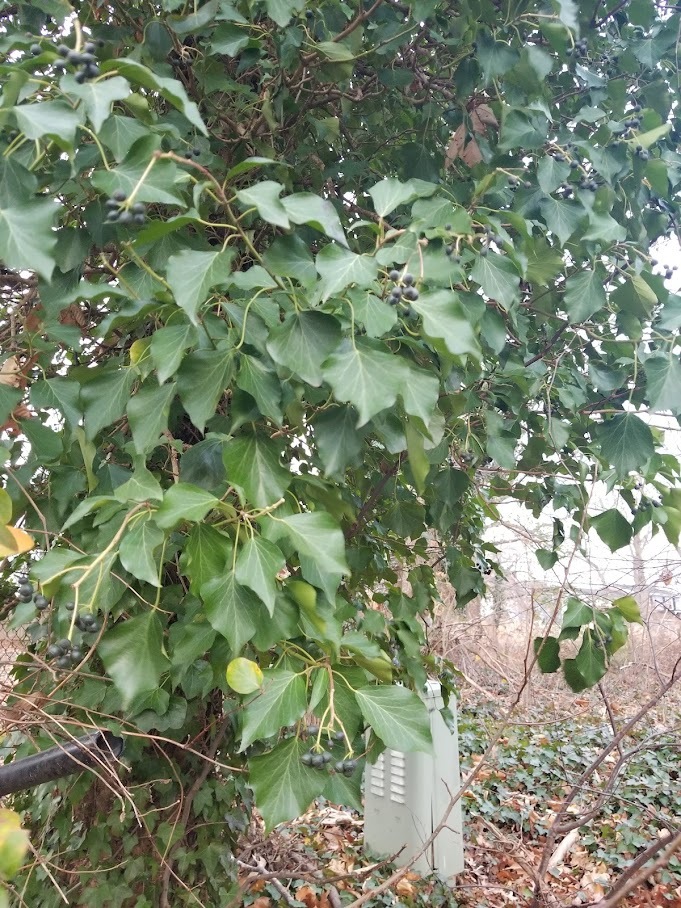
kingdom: Plantae
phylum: Tracheophyta
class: Magnoliopsida
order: Apiales
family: Araliaceae
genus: Hedera
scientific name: Hedera helix
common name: Ivy
